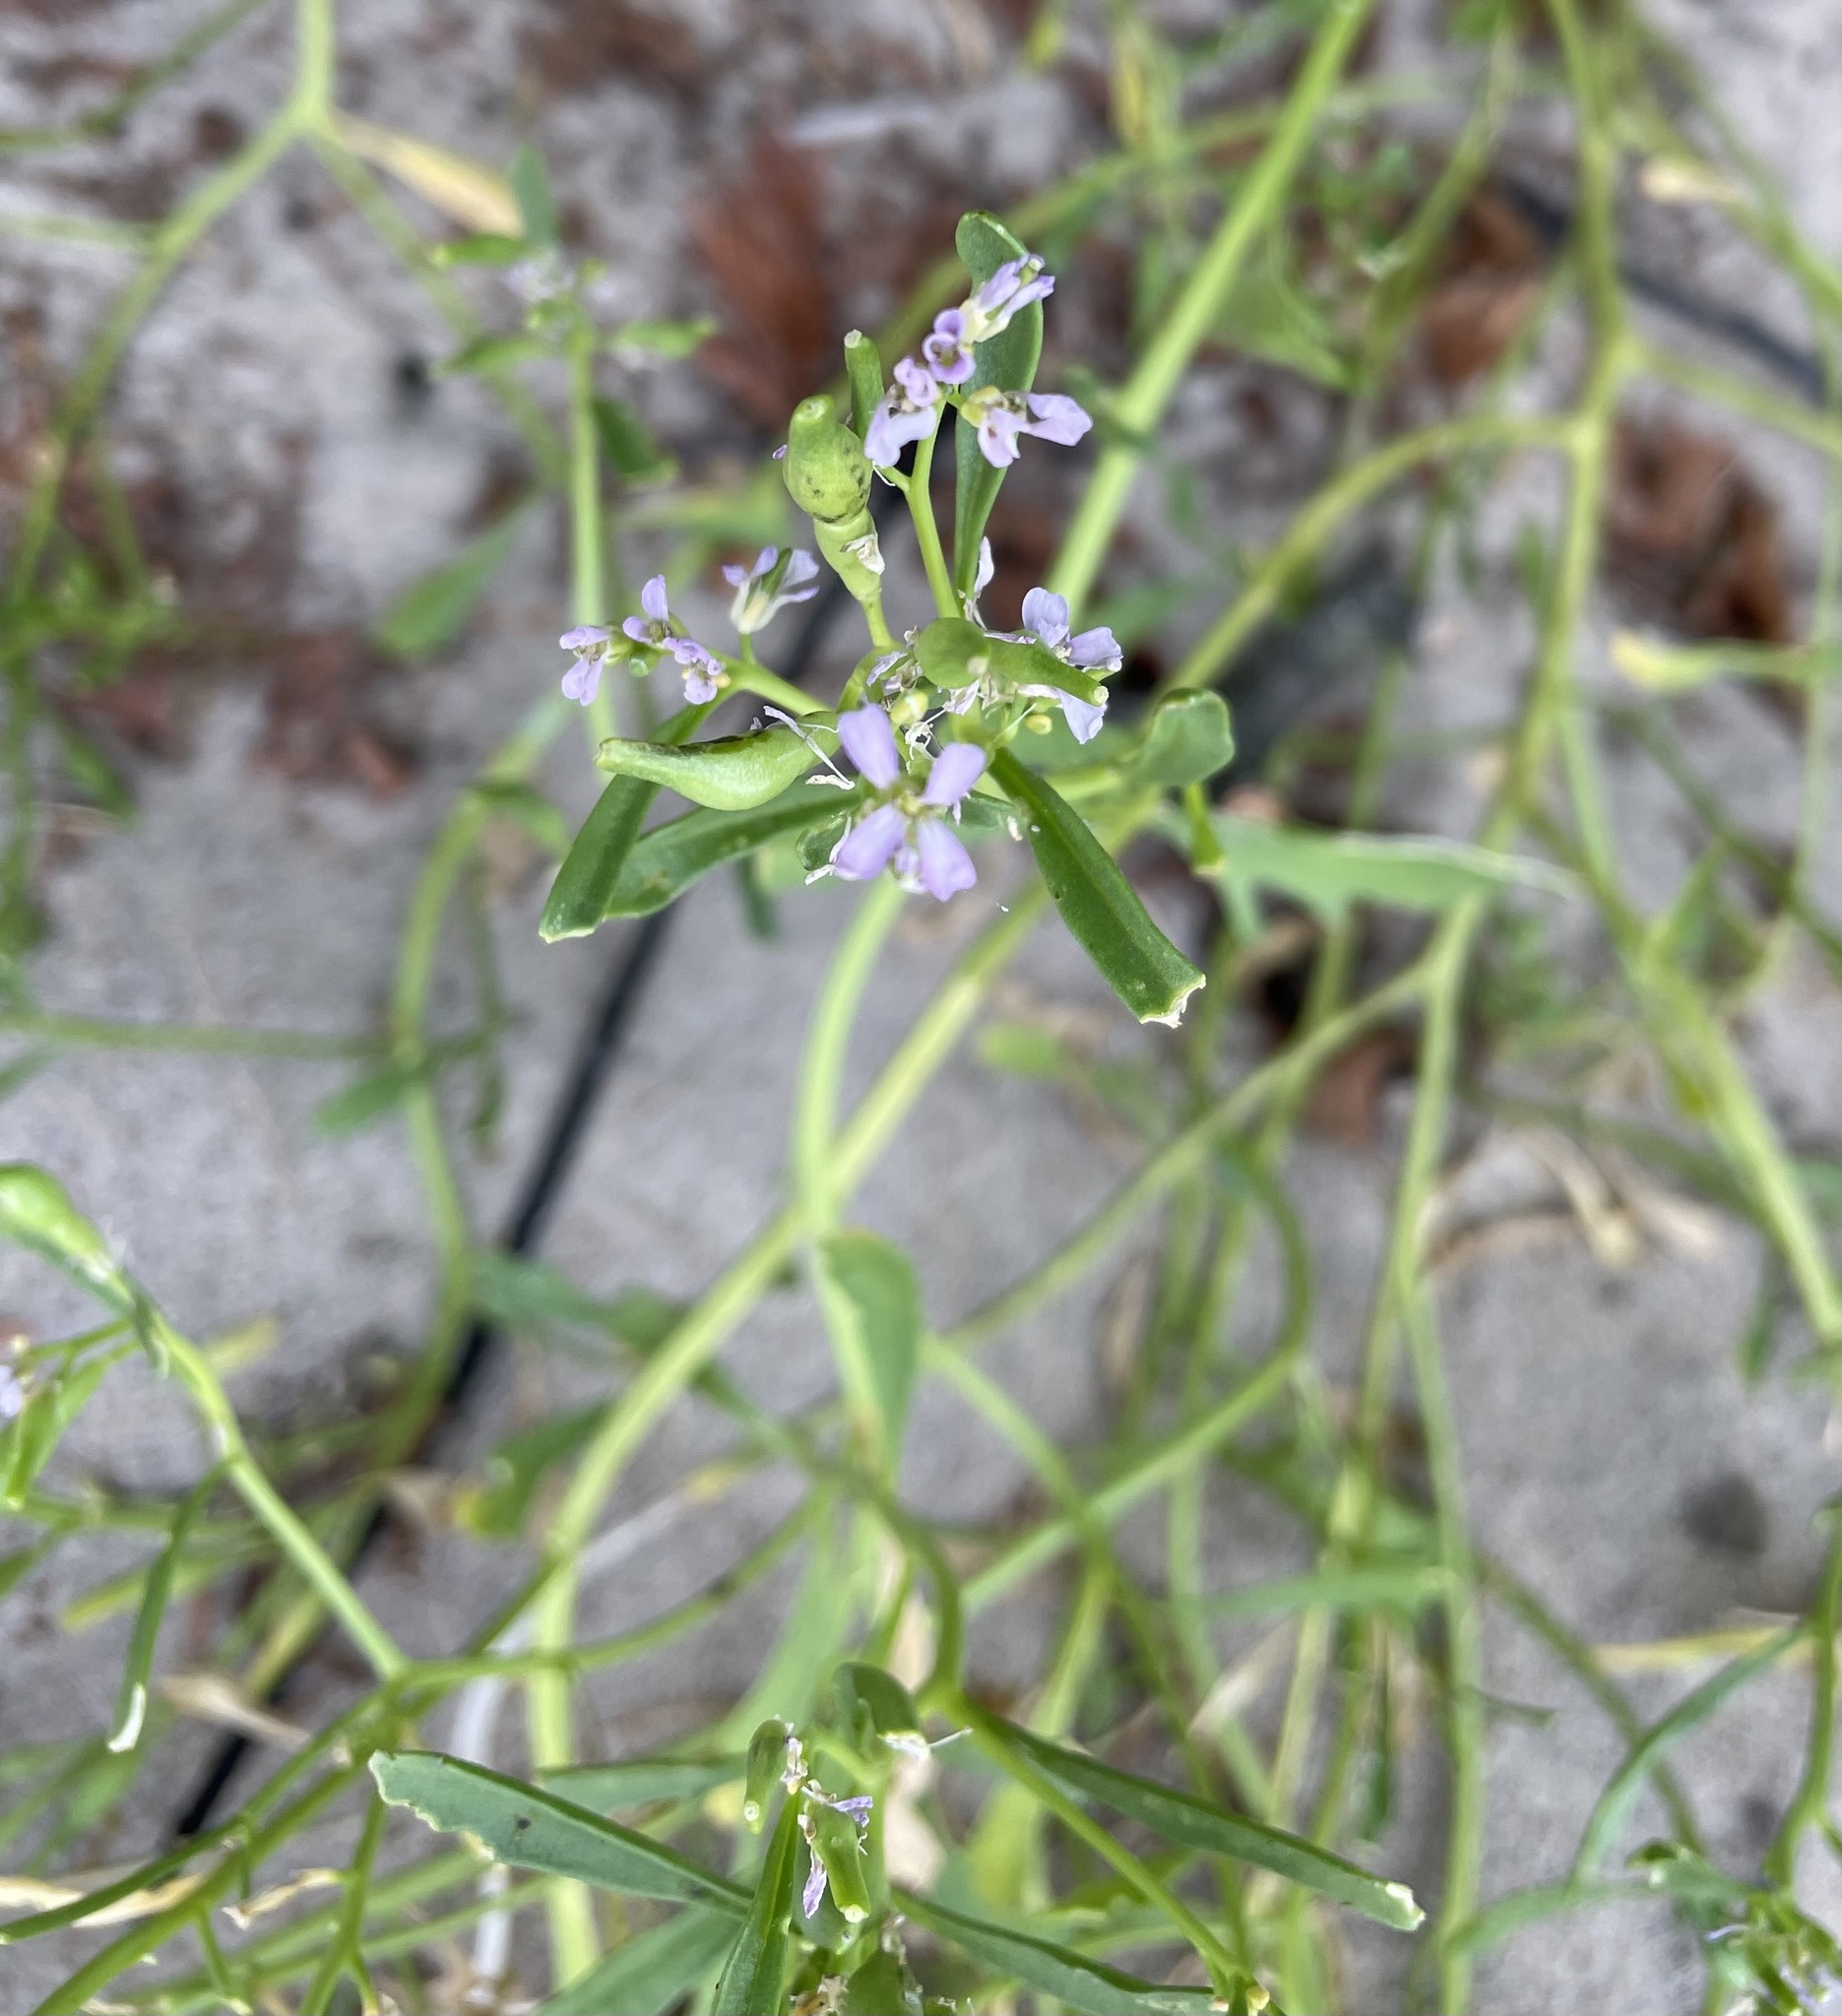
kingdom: Plantae
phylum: Tracheophyta
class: Magnoliopsida
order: Brassicales
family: Brassicaceae
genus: Cakile
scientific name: Cakile edentula
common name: American sea rocket
